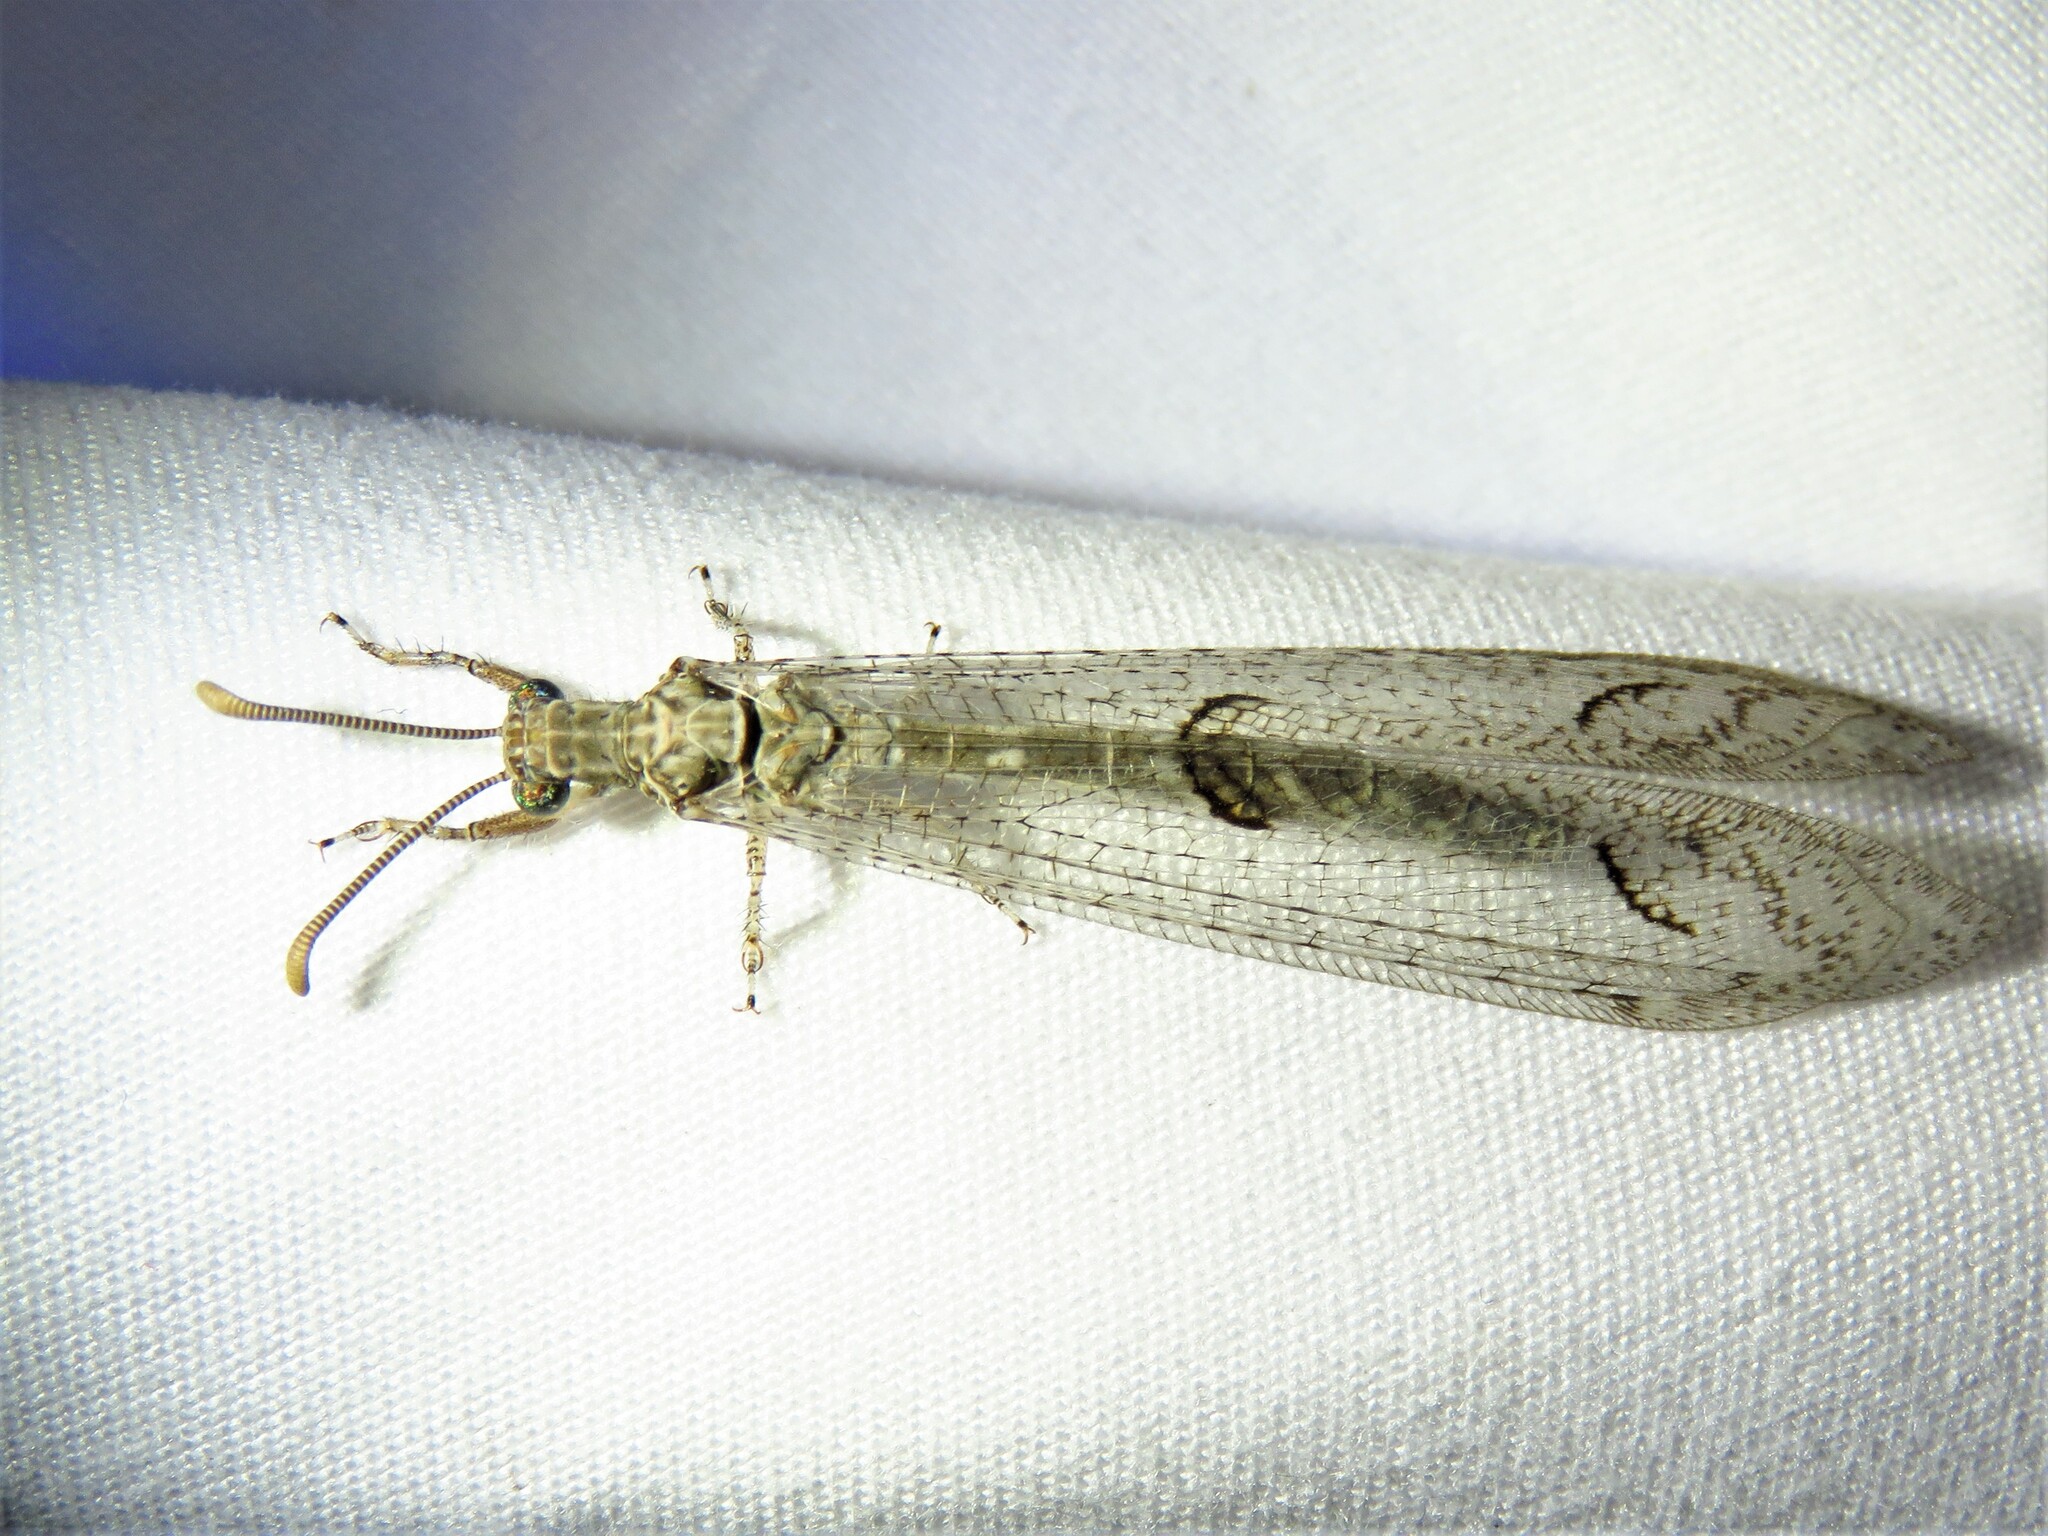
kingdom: Animalia
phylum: Arthropoda
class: Insecta
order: Neuroptera
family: Myrmeleontidae
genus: Euptilon
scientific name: Euptilon ornatum
